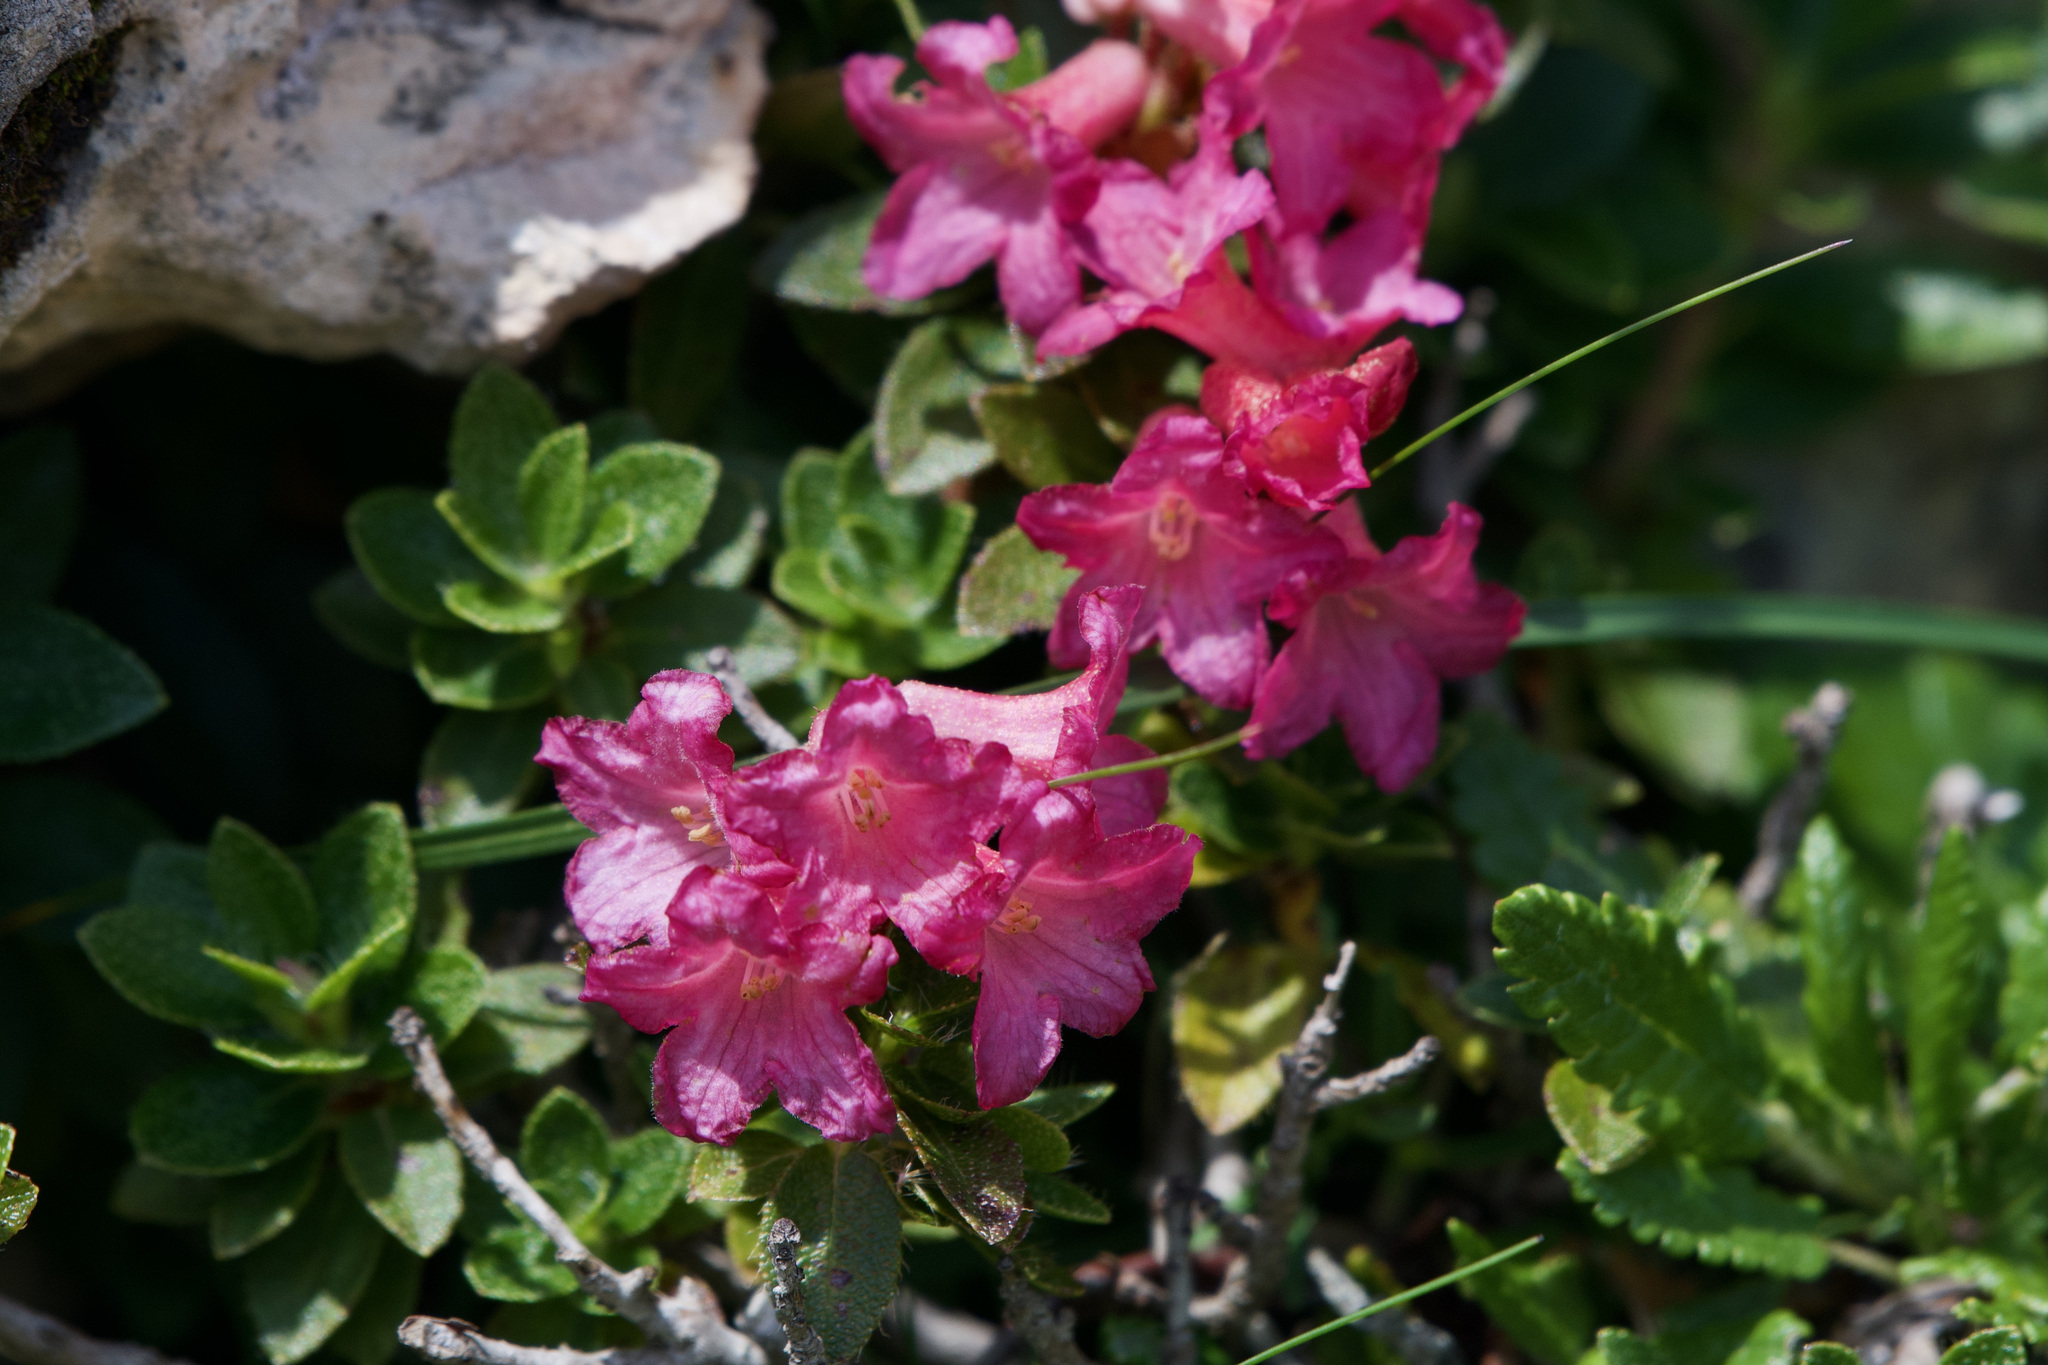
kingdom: Plantae
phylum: Tracheophyta
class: Magnoliopsida
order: Ericales
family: Ericaceae
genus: Rhododendron
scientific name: Rhododendron hirsutum
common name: Hairy alpenrose
